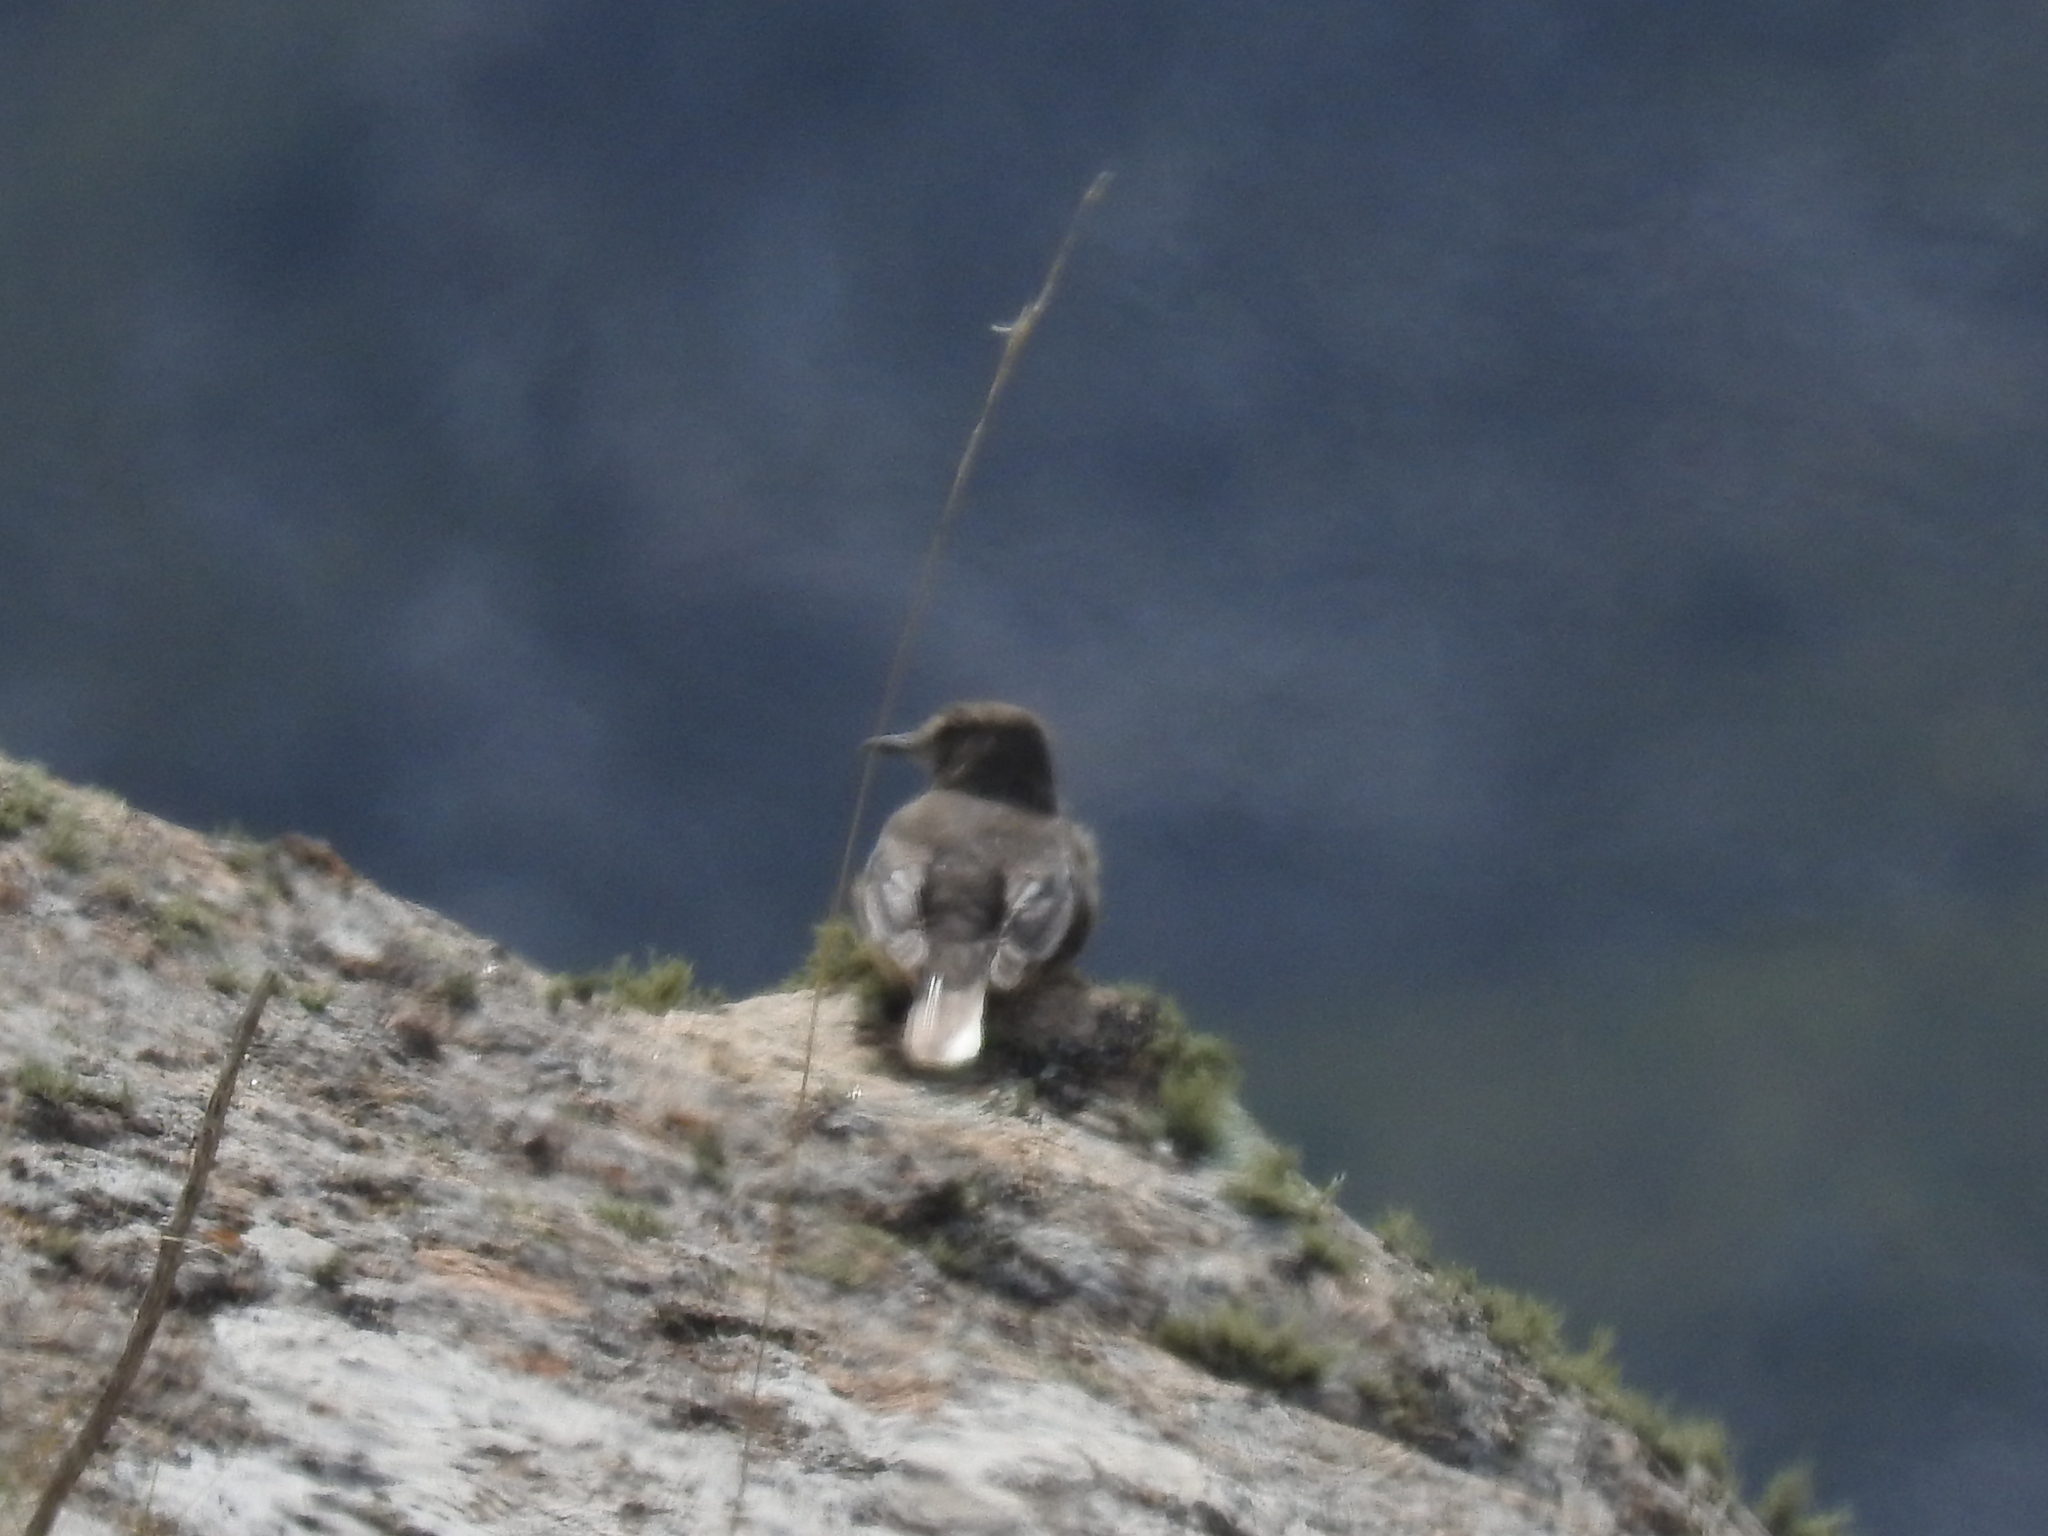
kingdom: Animalia
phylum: Chordata
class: Aves
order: Passeriformes
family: Tyrannidae
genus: Agriornis
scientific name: Agriornis montanus
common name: Black-billed shrike-tyrant
